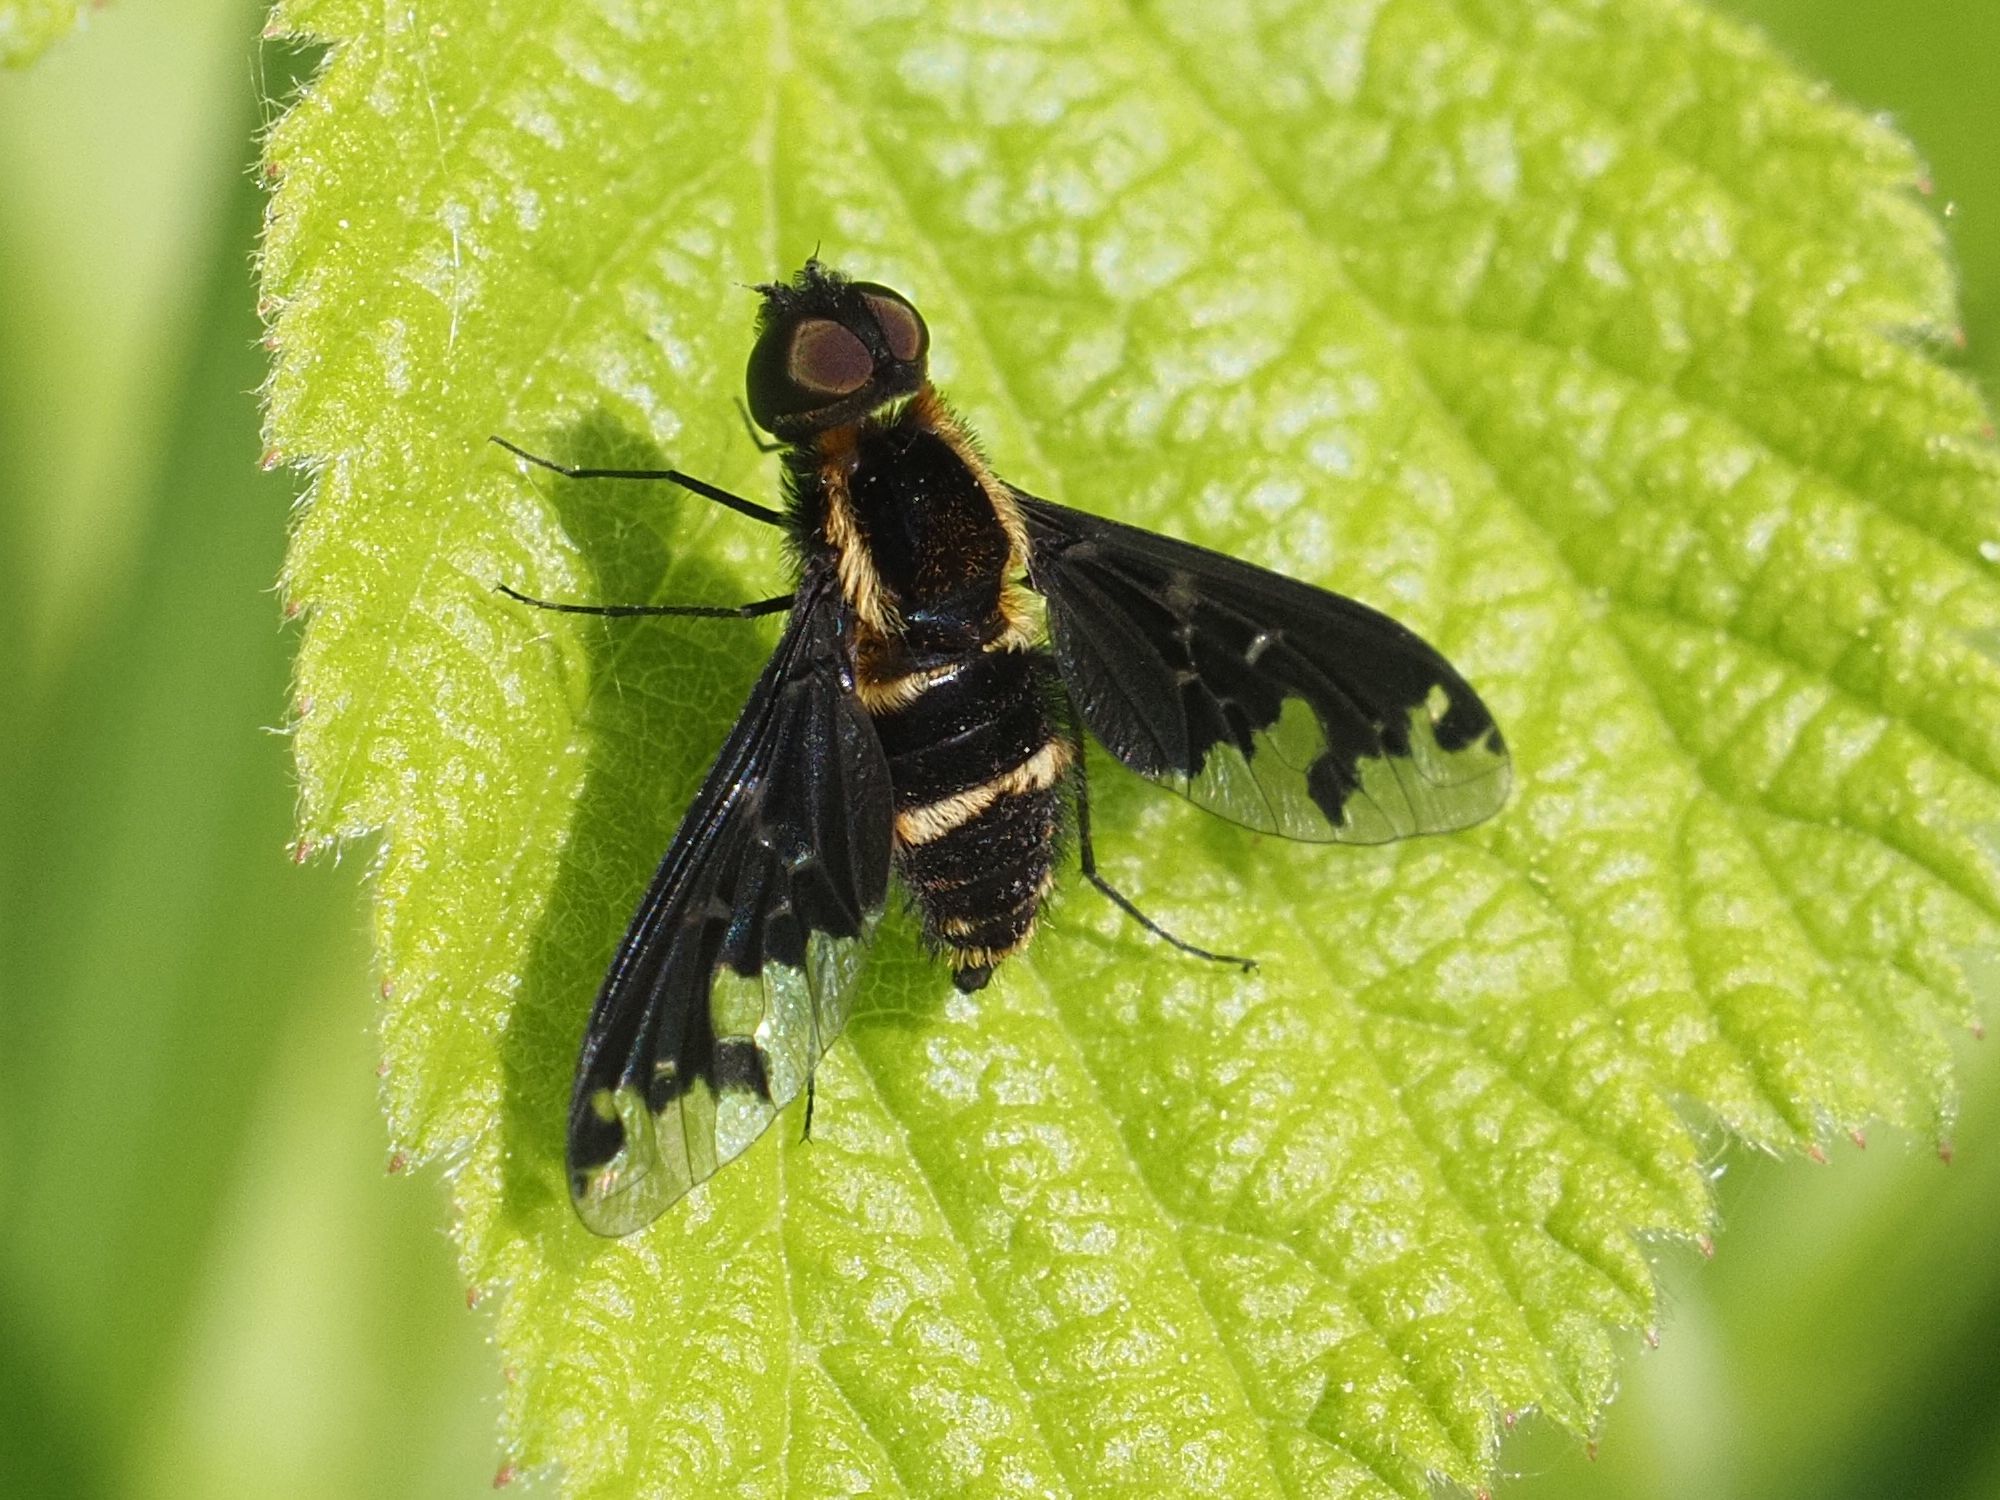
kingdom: Animalia
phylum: Arthropoda
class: Insecta
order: Diptera
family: Bombyliidae
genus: Hemipenthes
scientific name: Hemipenthes maura
